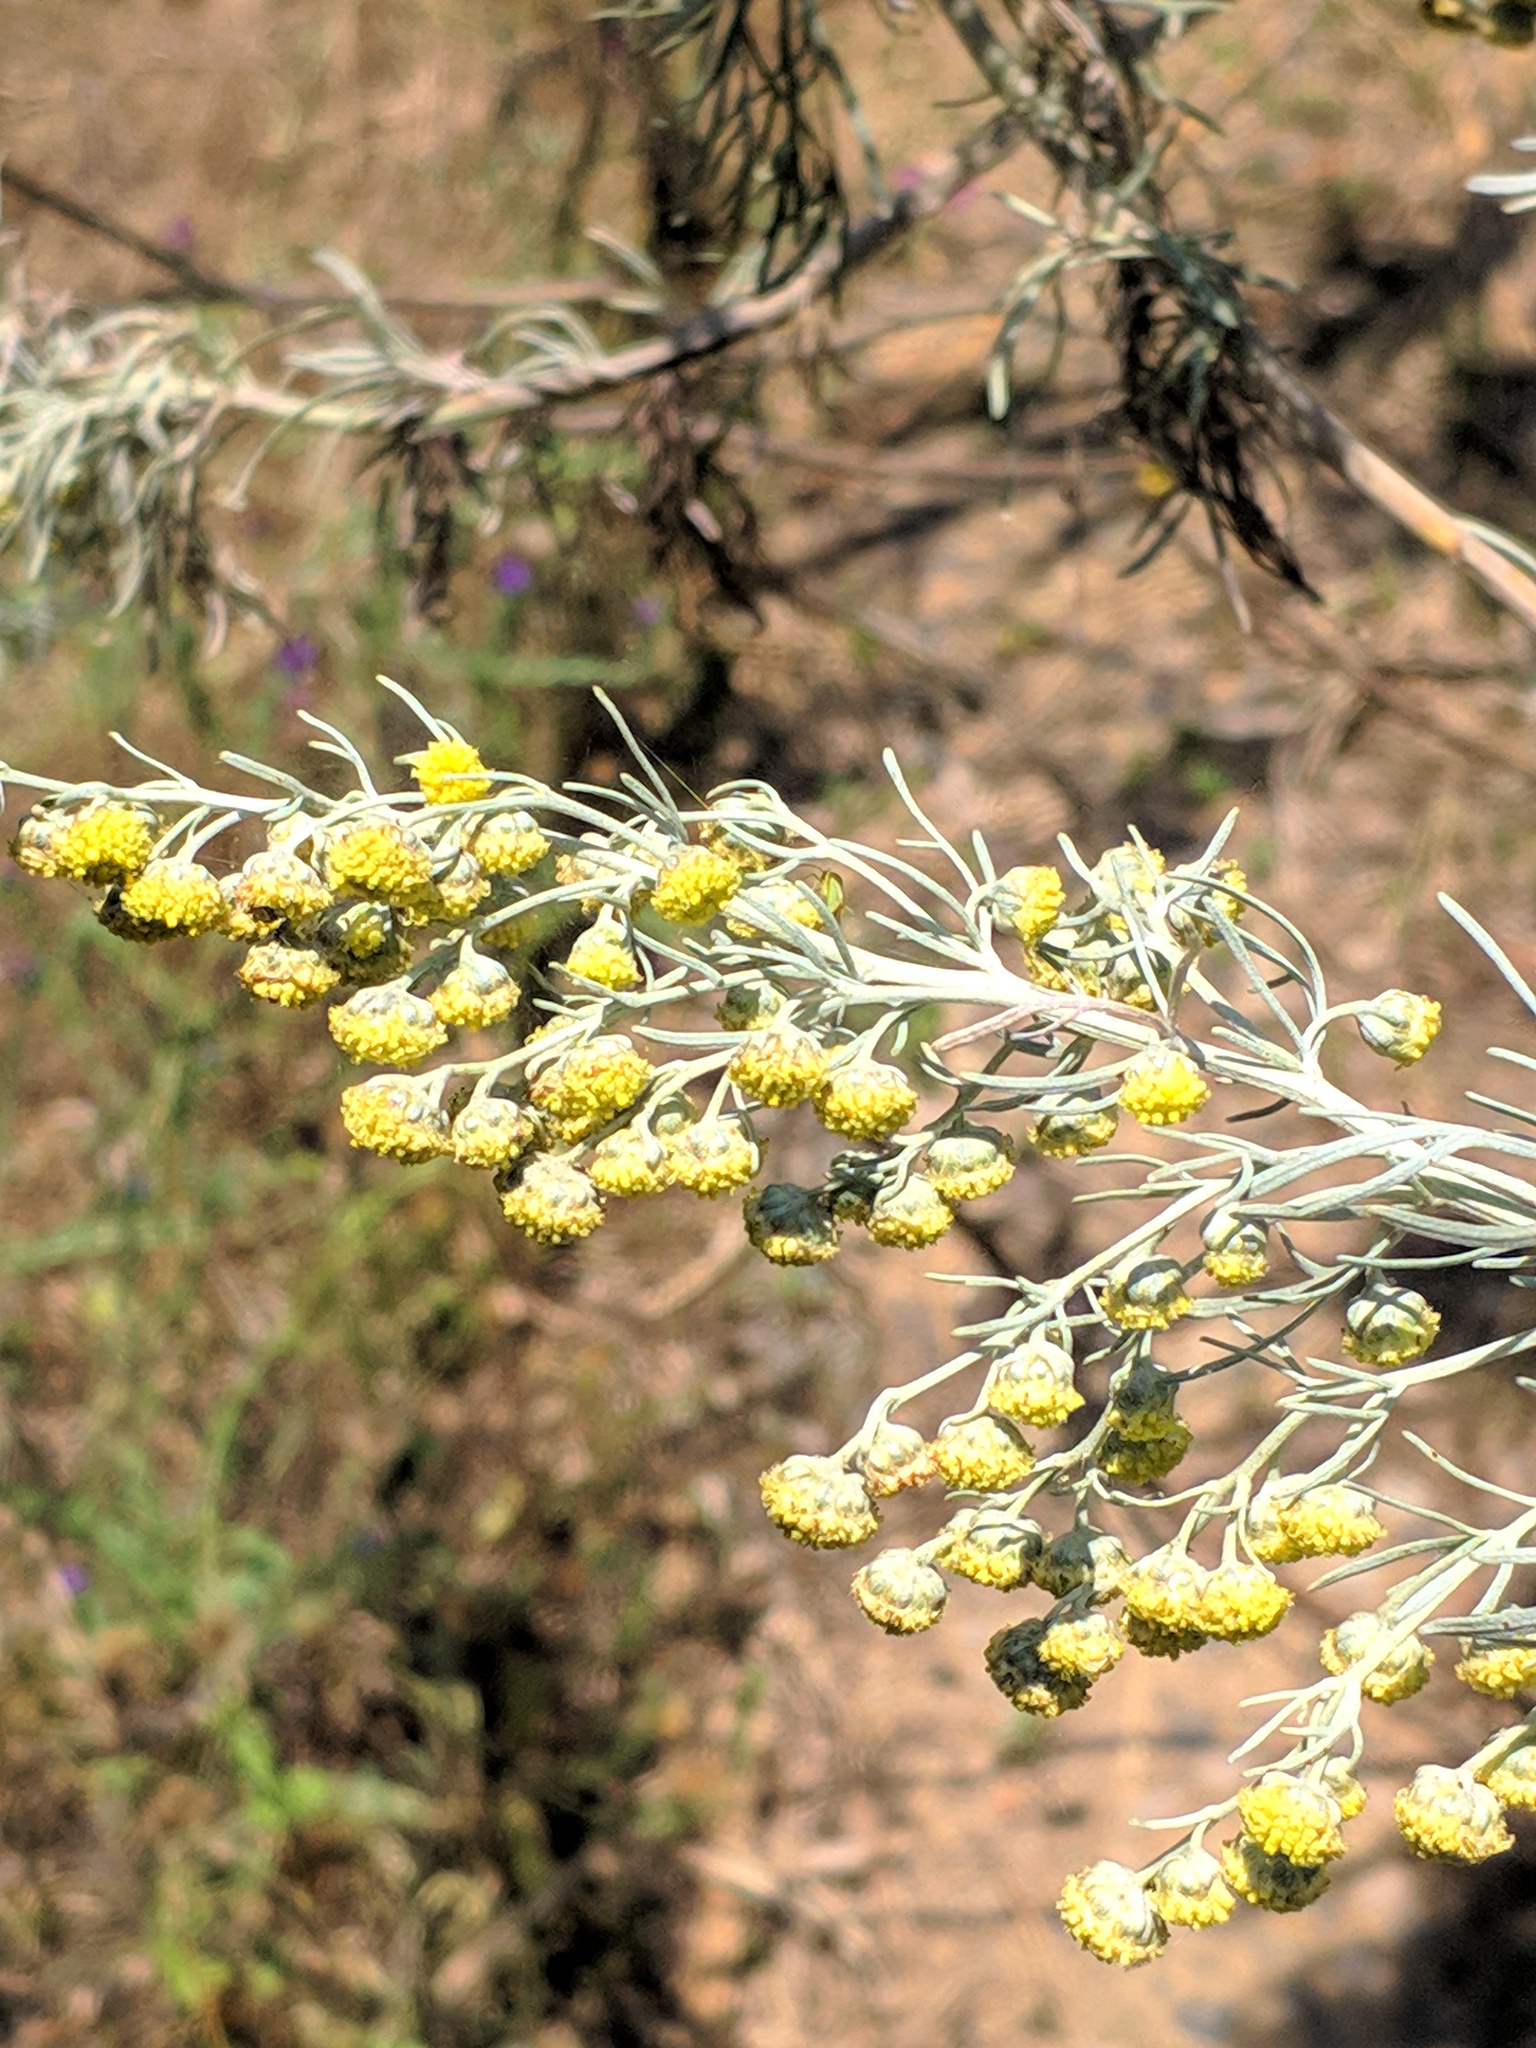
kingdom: Plantae
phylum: Tracheophyta
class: Magnoliopsida
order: Asterales
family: Asteraceae
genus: Artemisia
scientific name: Artemisia arborescens
